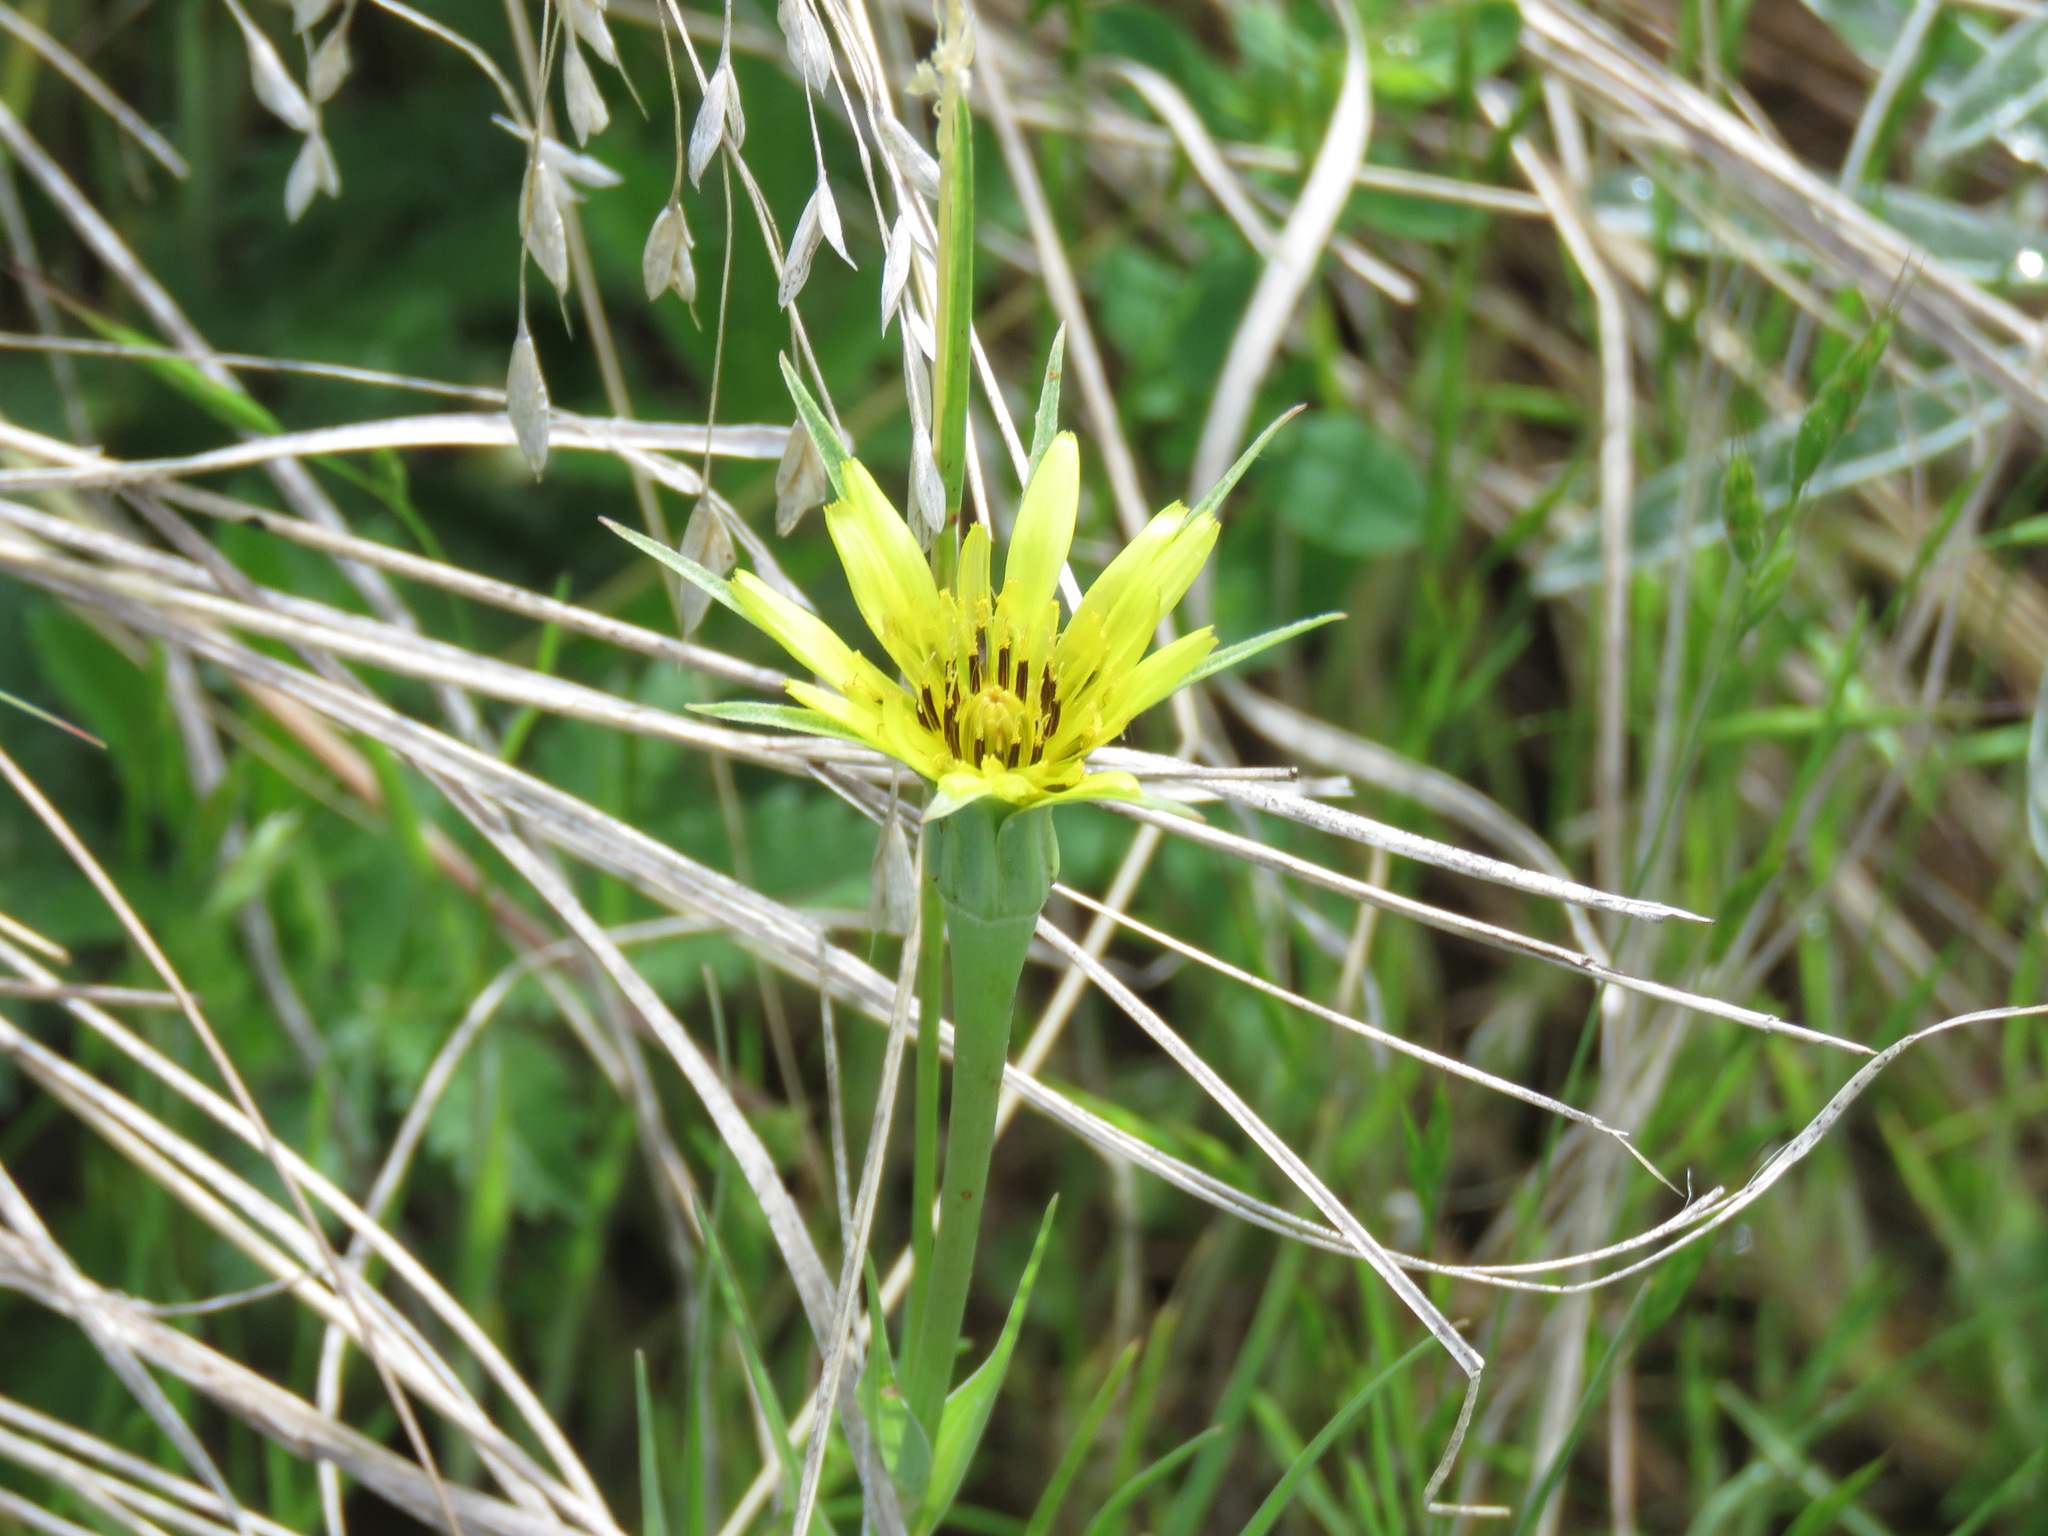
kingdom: Plantae
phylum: Tracheophyta
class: Magnoliopsida
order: Asterales
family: Asteraceae
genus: Tragopogon
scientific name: Tragopogon dubius
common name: Yellow salsify
